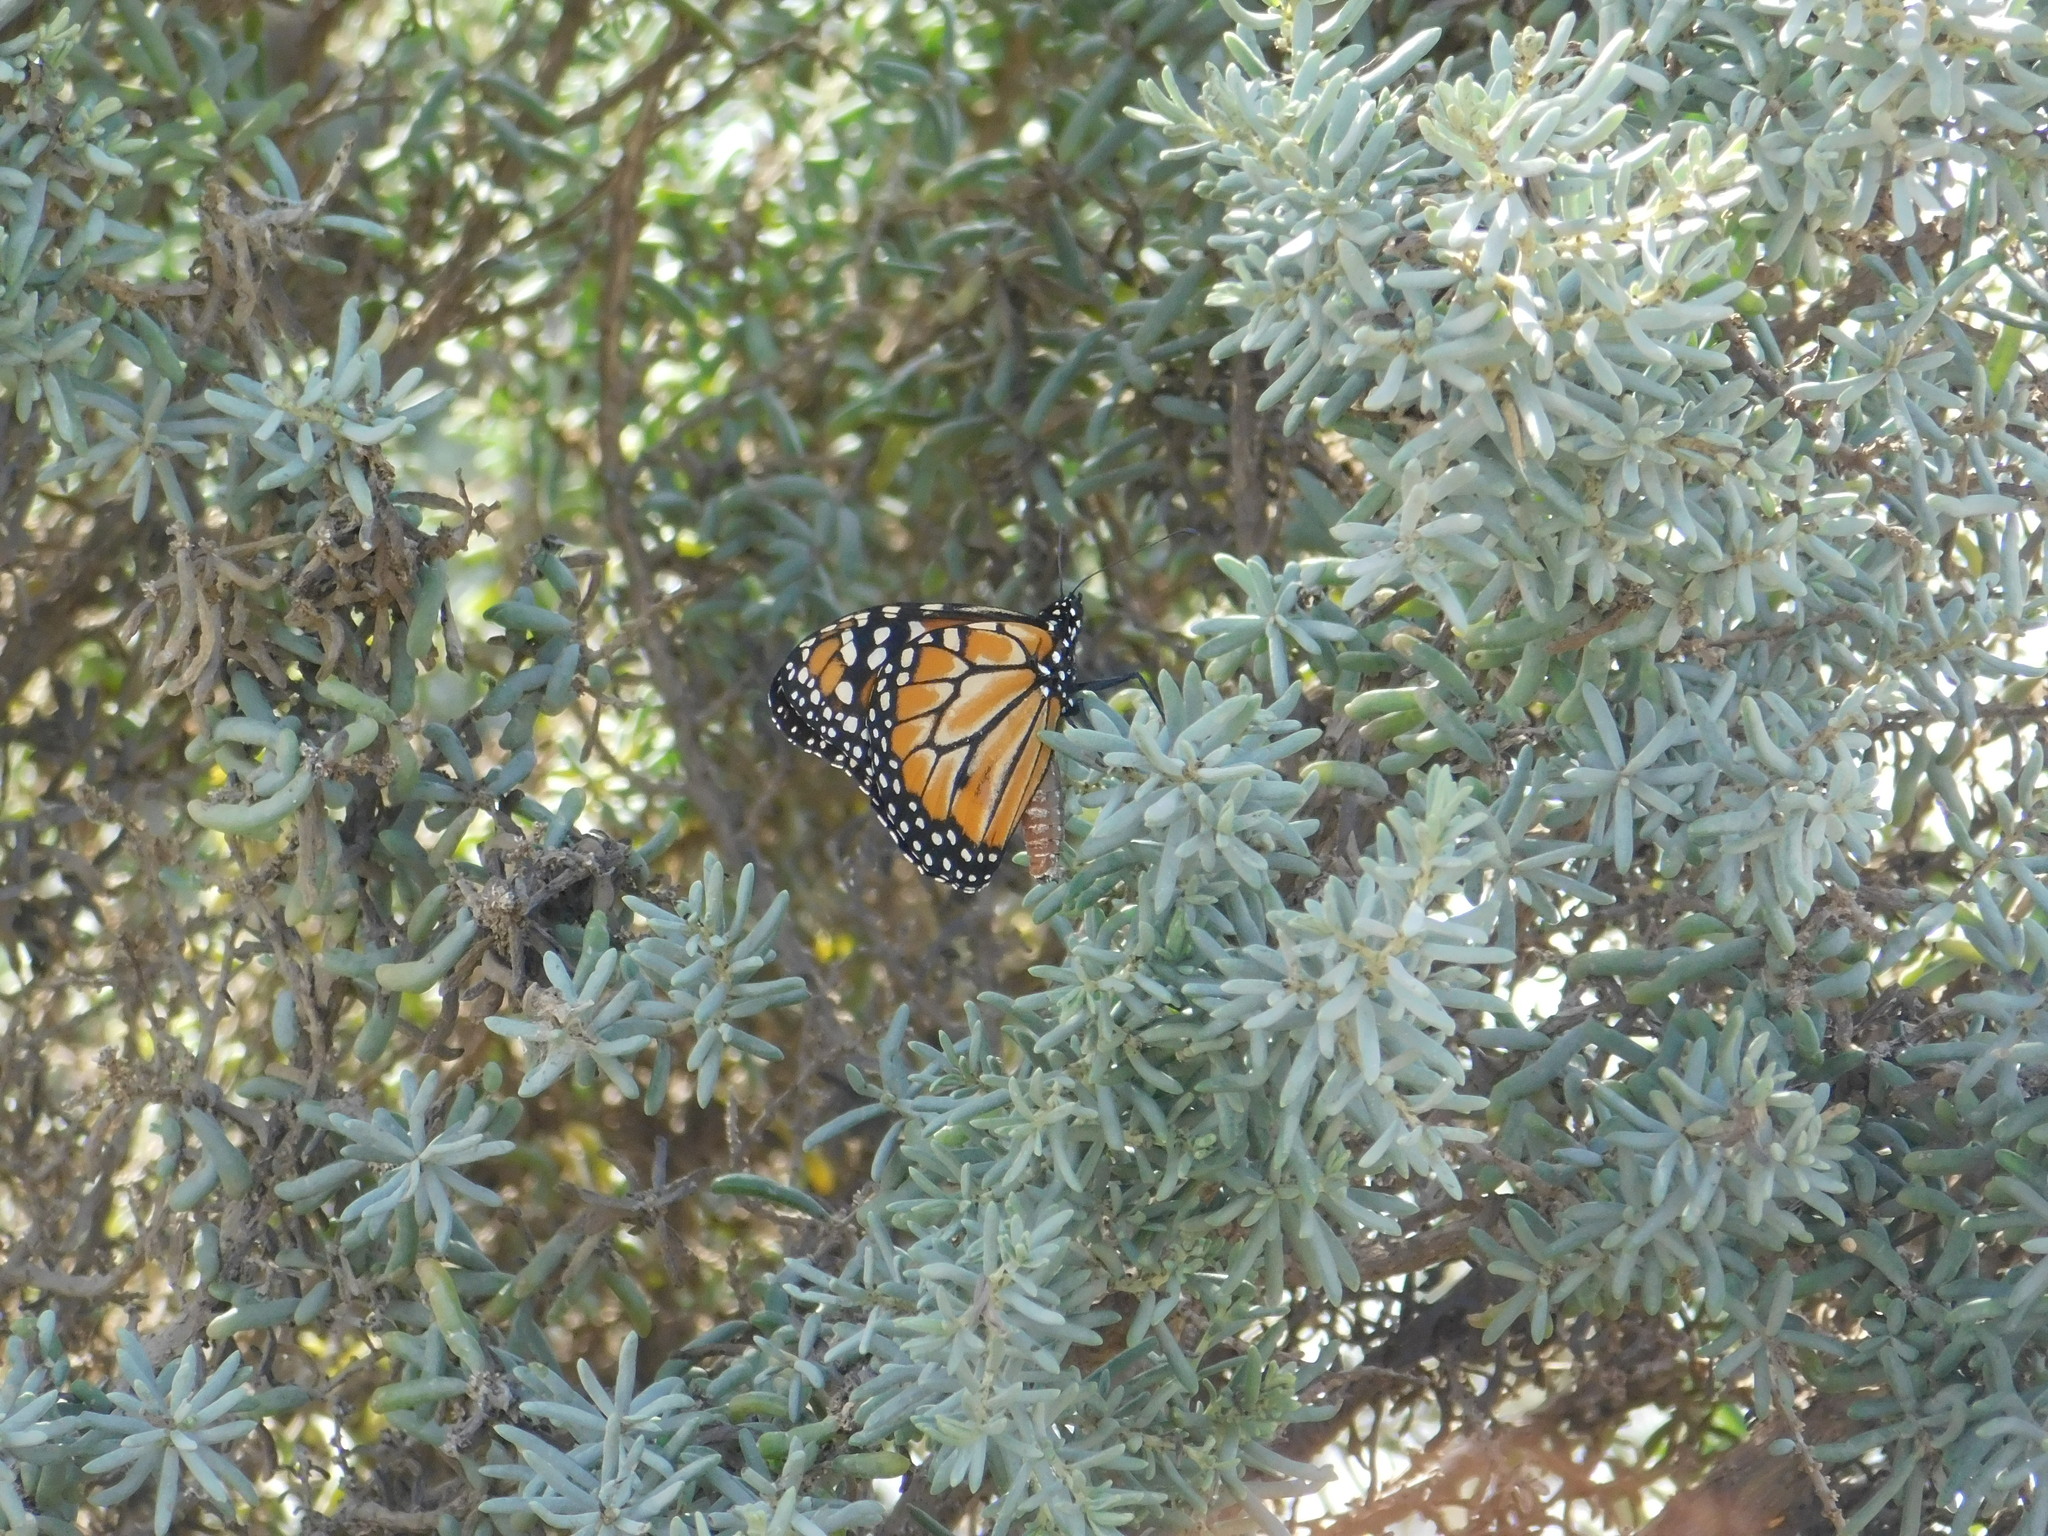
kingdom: Animalia
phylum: Arthropoda
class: Insecta
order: Lepidoptera
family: Nymphalidae
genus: Danaus
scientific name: Danaus erippus
